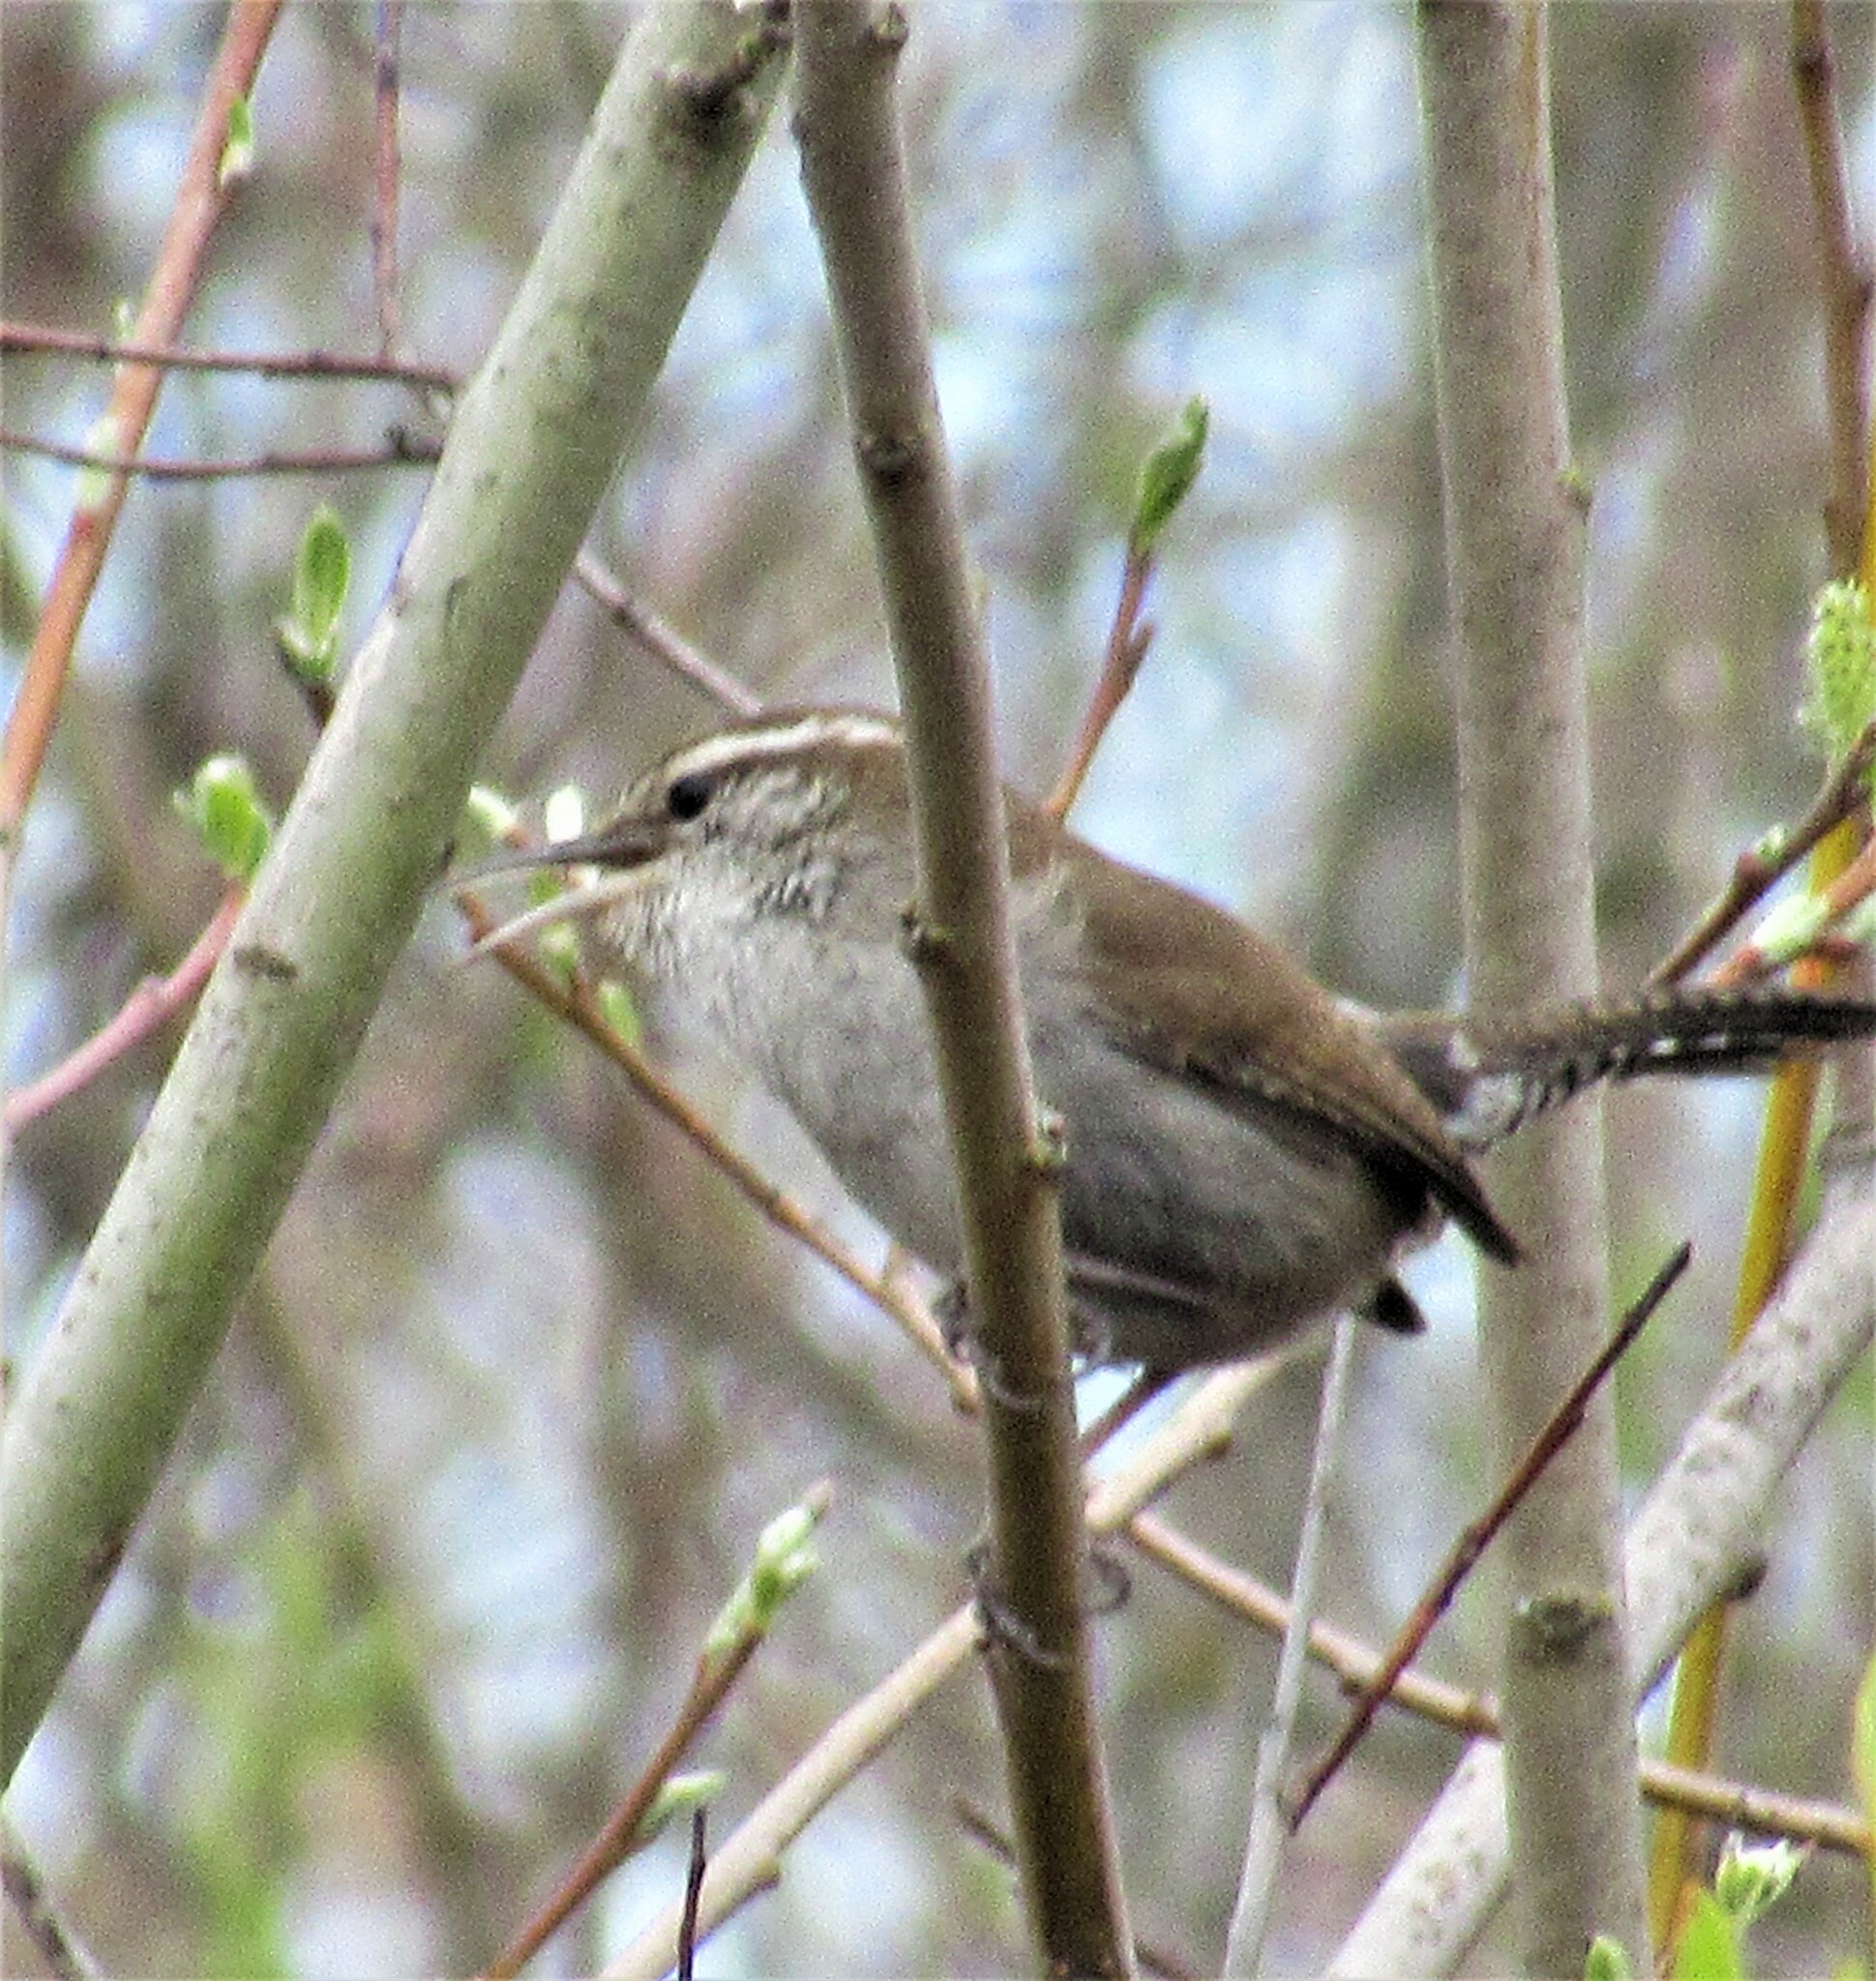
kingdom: Animalia
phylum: Chordata
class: Aves
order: Passeriformes
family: Troglodytidae
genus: Thryomanes
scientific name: Thryomanes bewickii
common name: Bewick's wren
